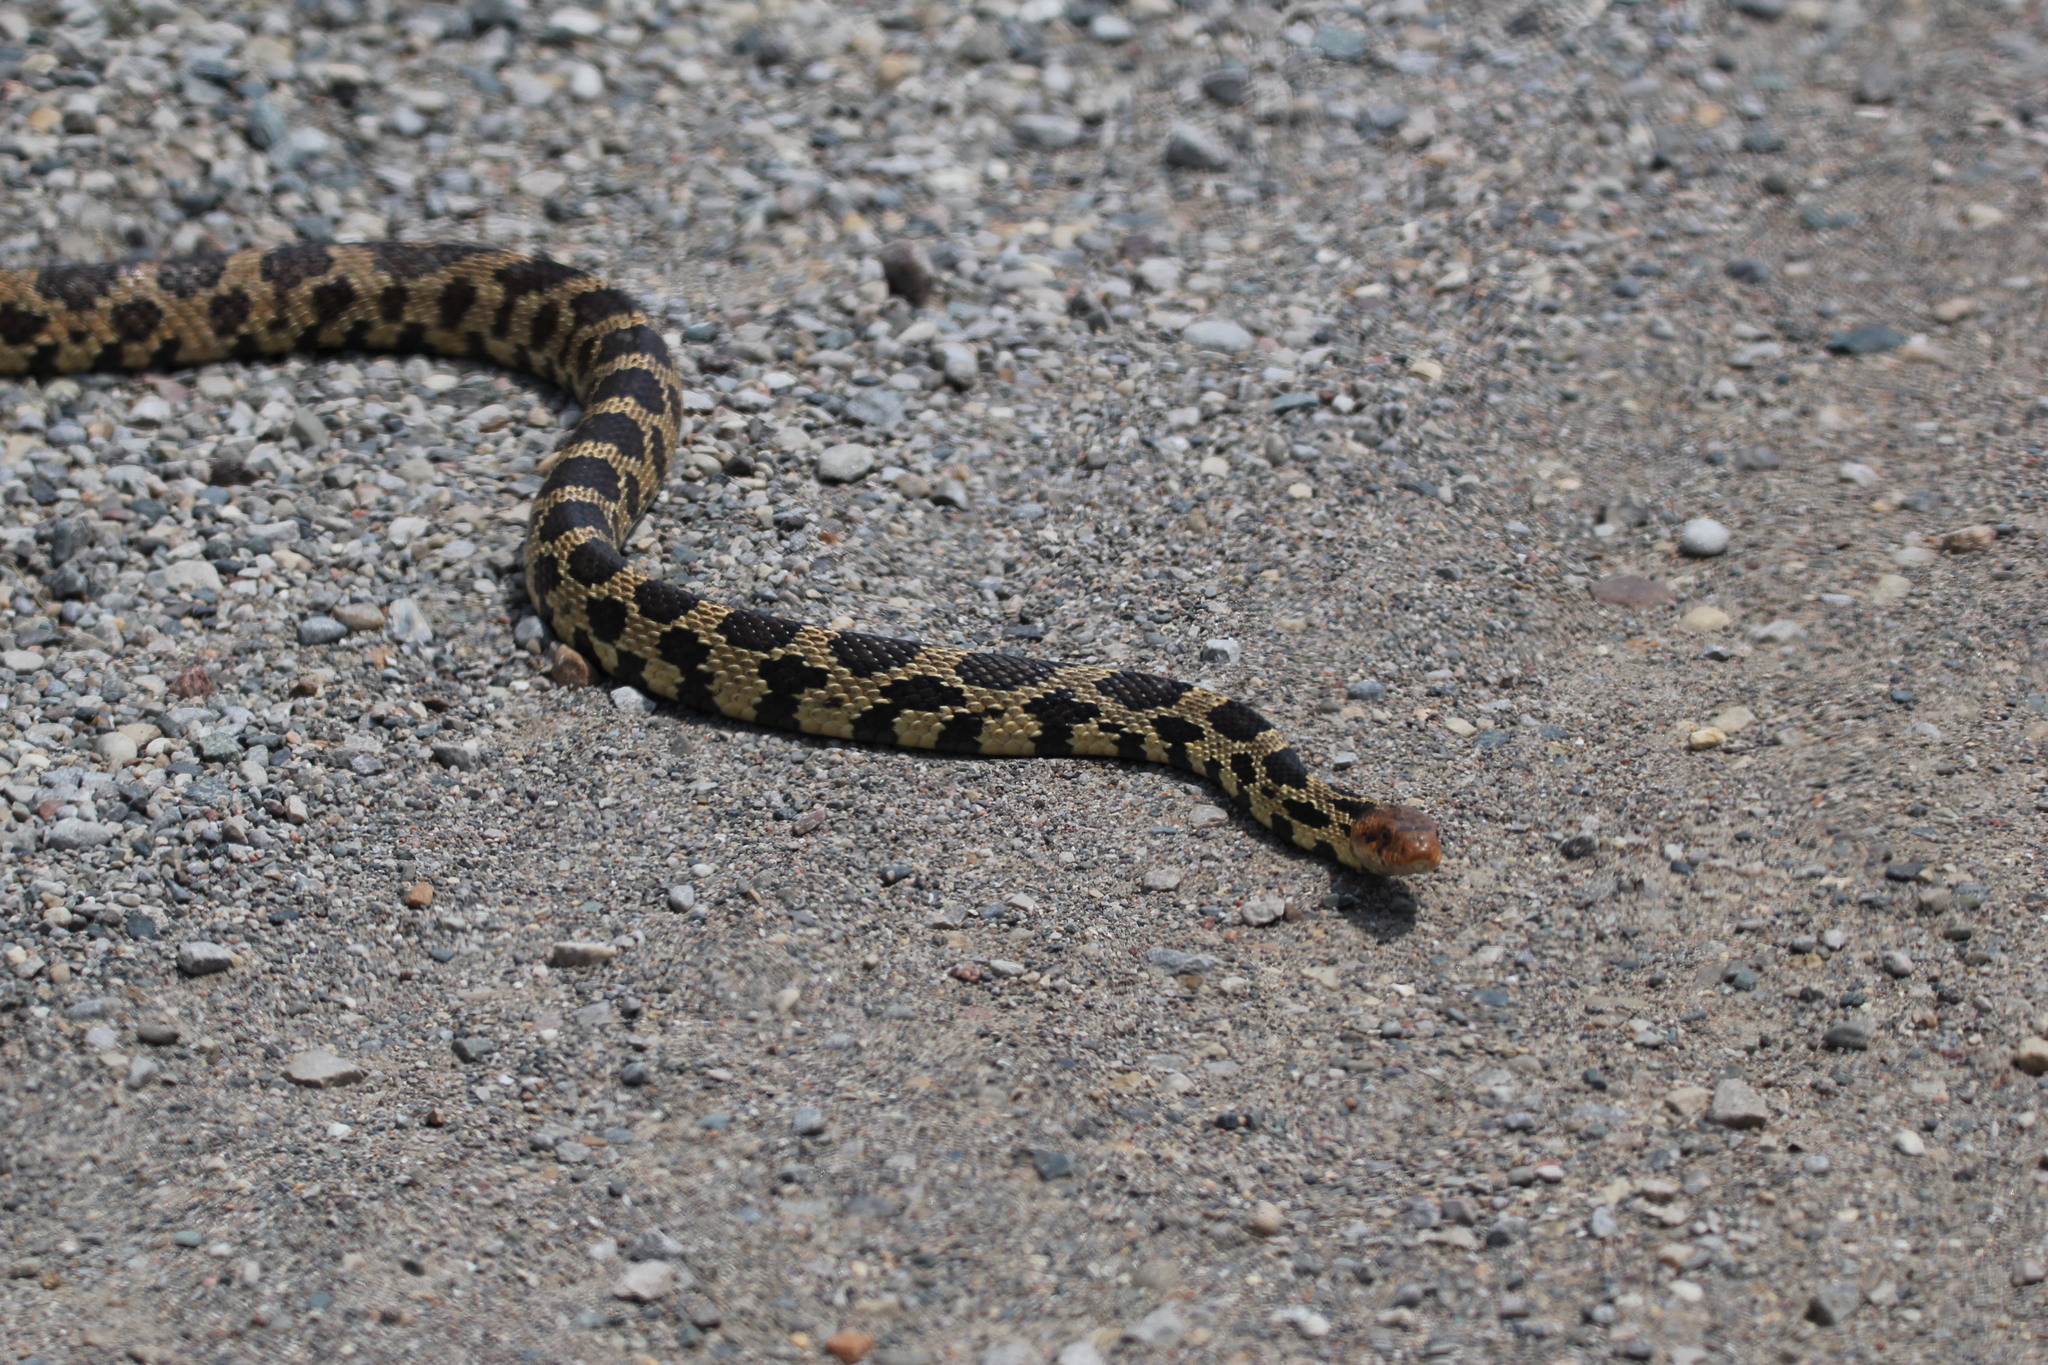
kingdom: Animalia
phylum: Chordata
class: Squamata
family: Colubridae
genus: Pantherophis
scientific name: Pantherophis vulpinus
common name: Eastern fox snake
